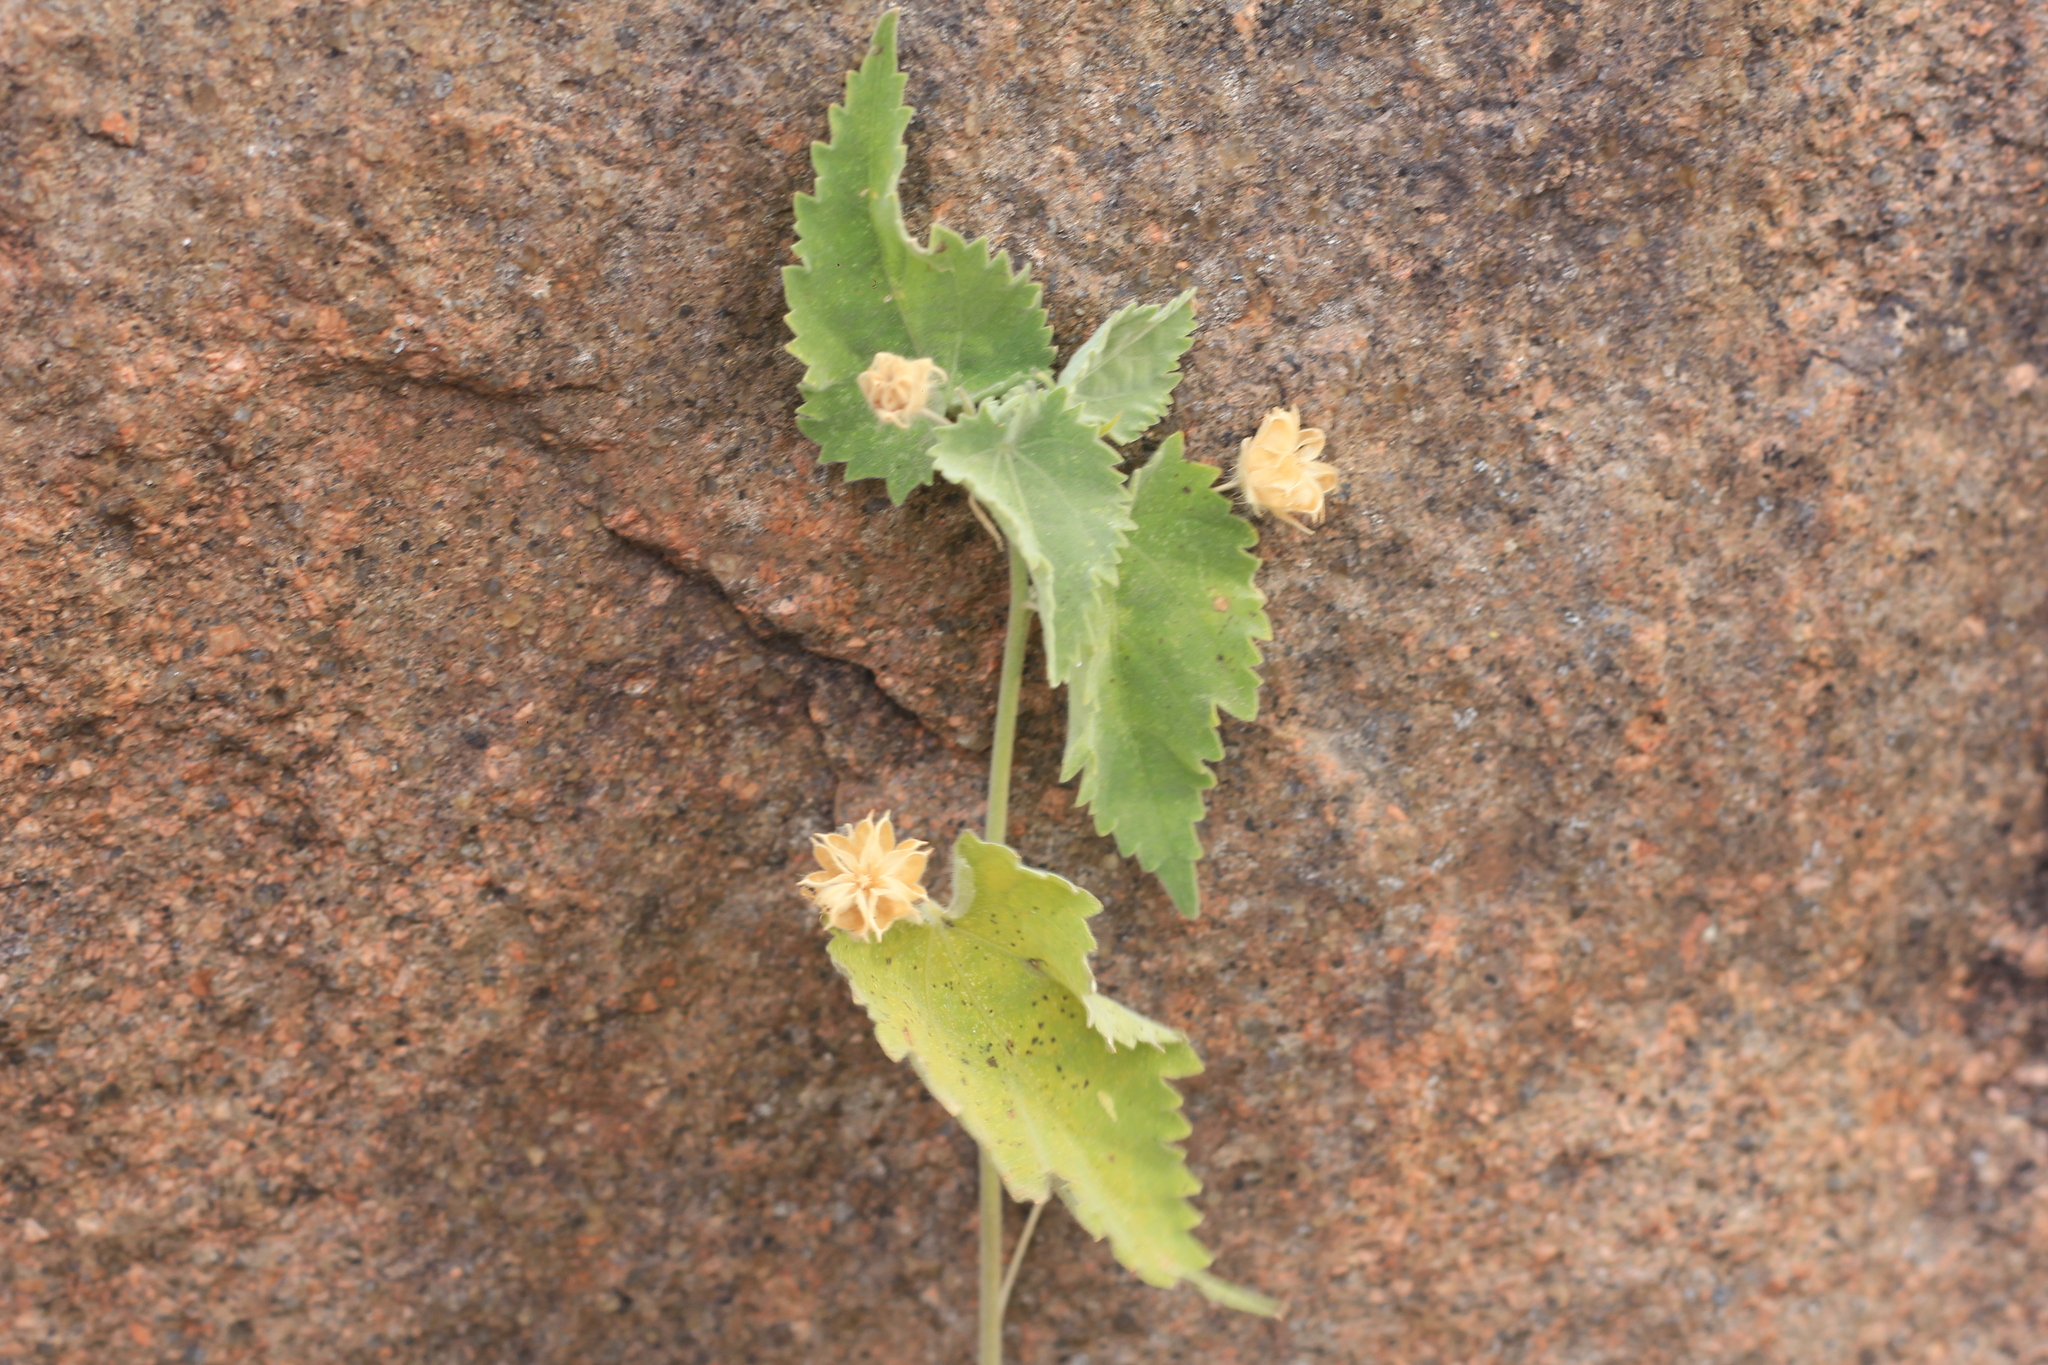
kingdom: Plantae
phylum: Tracheophyta
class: Magnoliopsida
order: Malvales
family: Malvaceae
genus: Pseudabutilon
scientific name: Pseudabutilon virgatum
